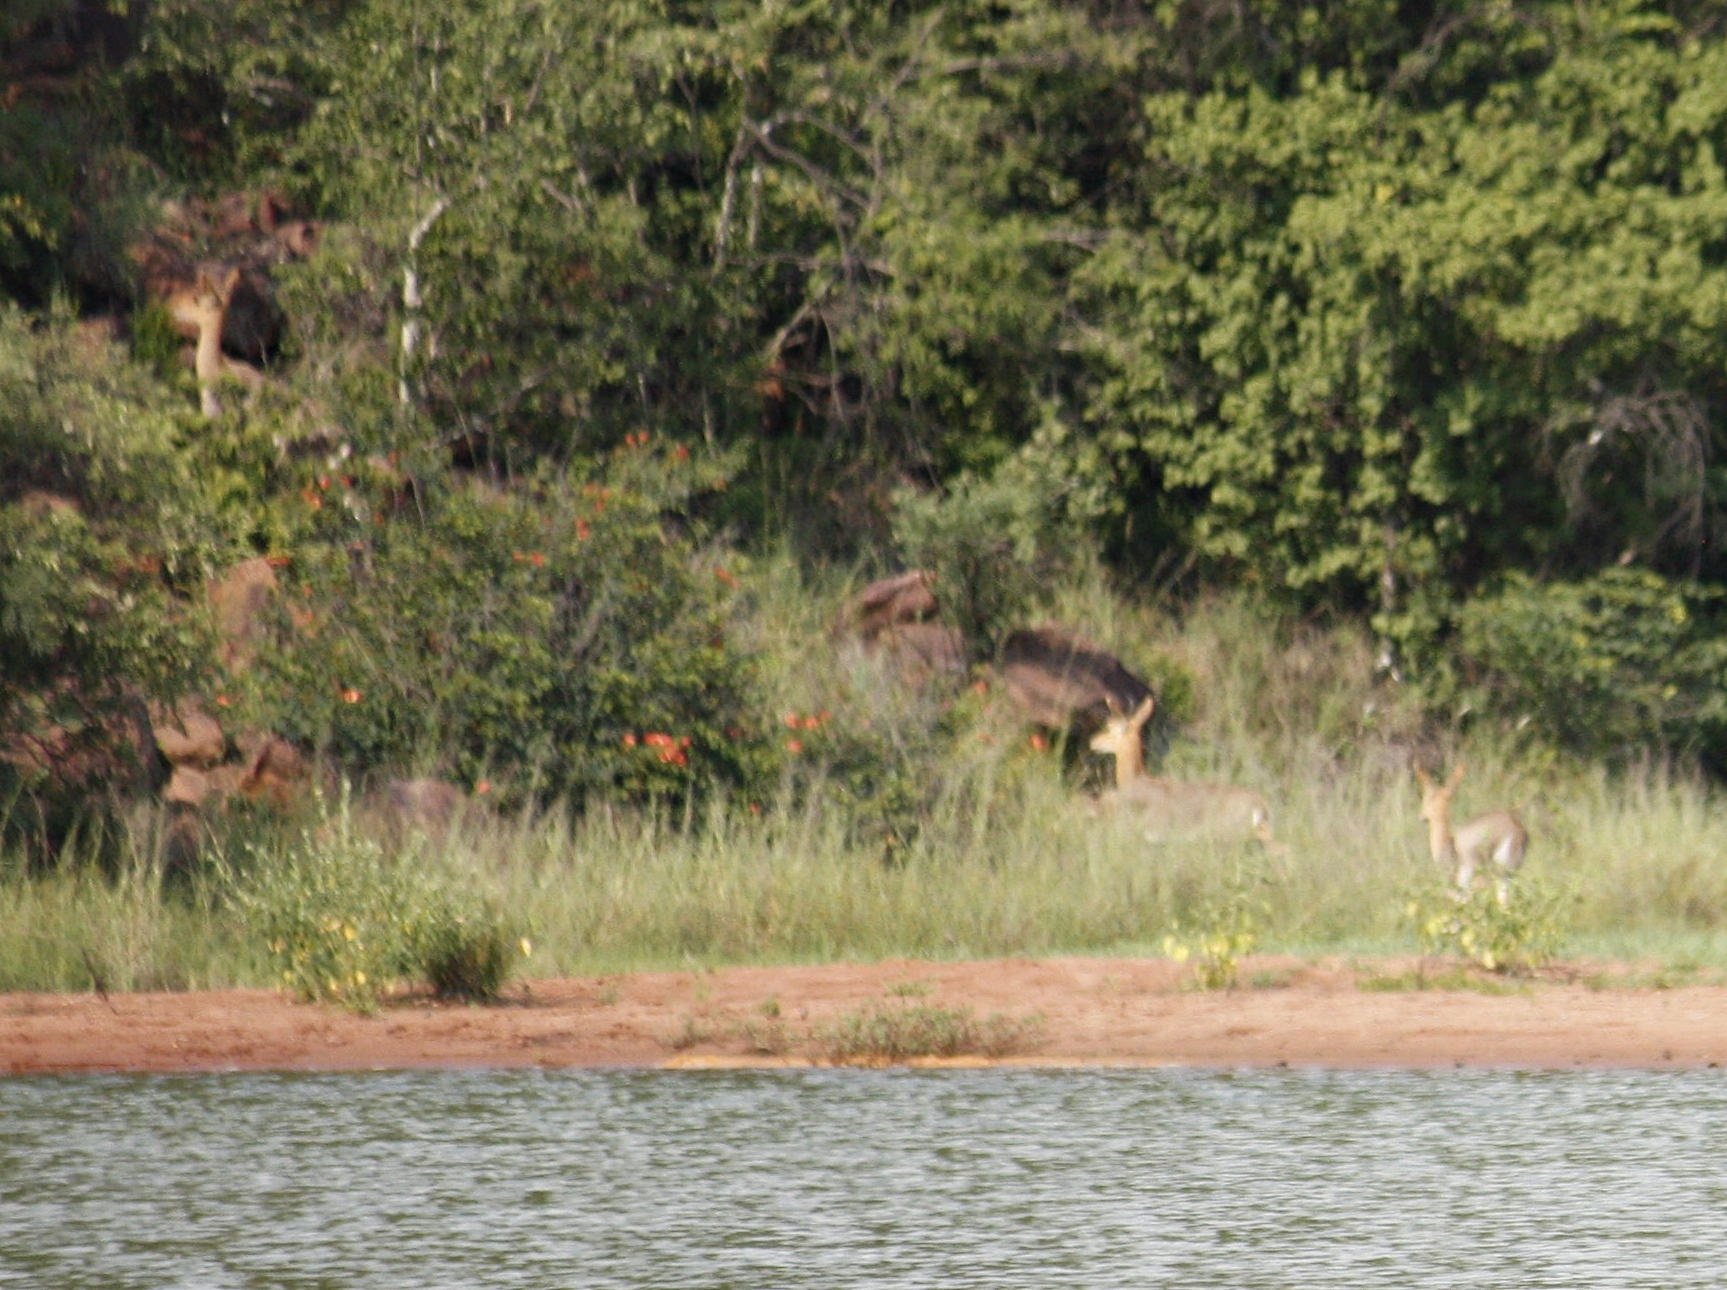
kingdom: Animalia
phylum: Chordata
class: Mammalia
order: Artiodactyla
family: Bovidae
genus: Redunca
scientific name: Redunca fulvorufula
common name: Mountain reedbuck
